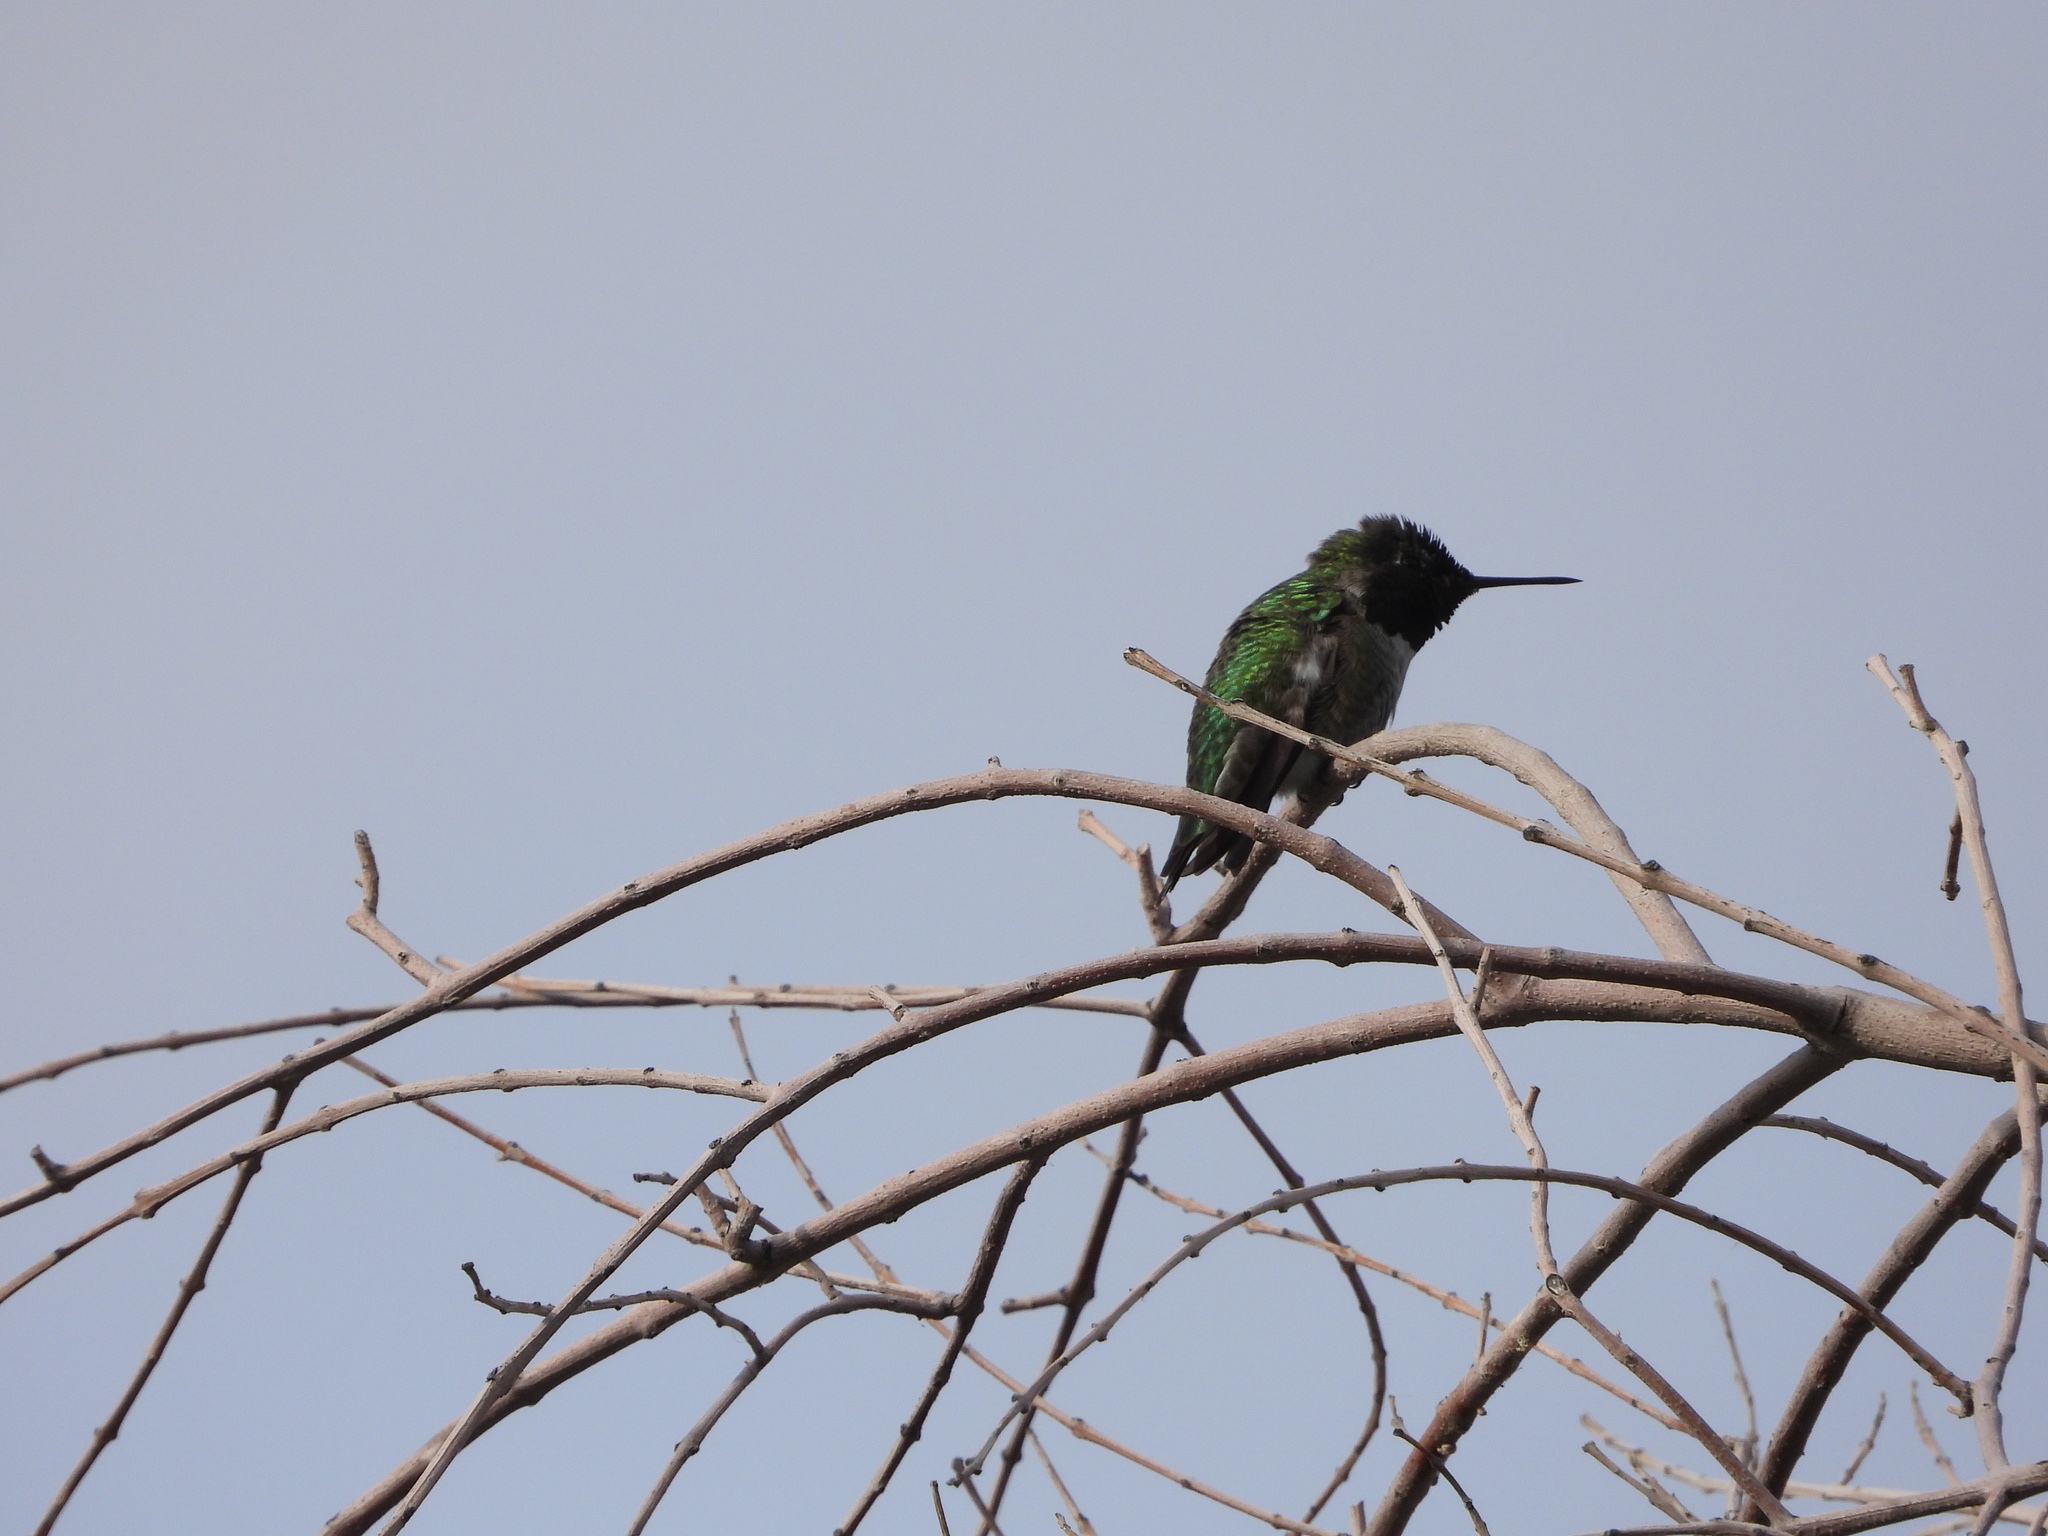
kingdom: Animalia
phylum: Chordata
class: Aves
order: Apodiformes
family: Trochilidae
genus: Calypte
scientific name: Calypte anna
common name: Anna's hummingbird
